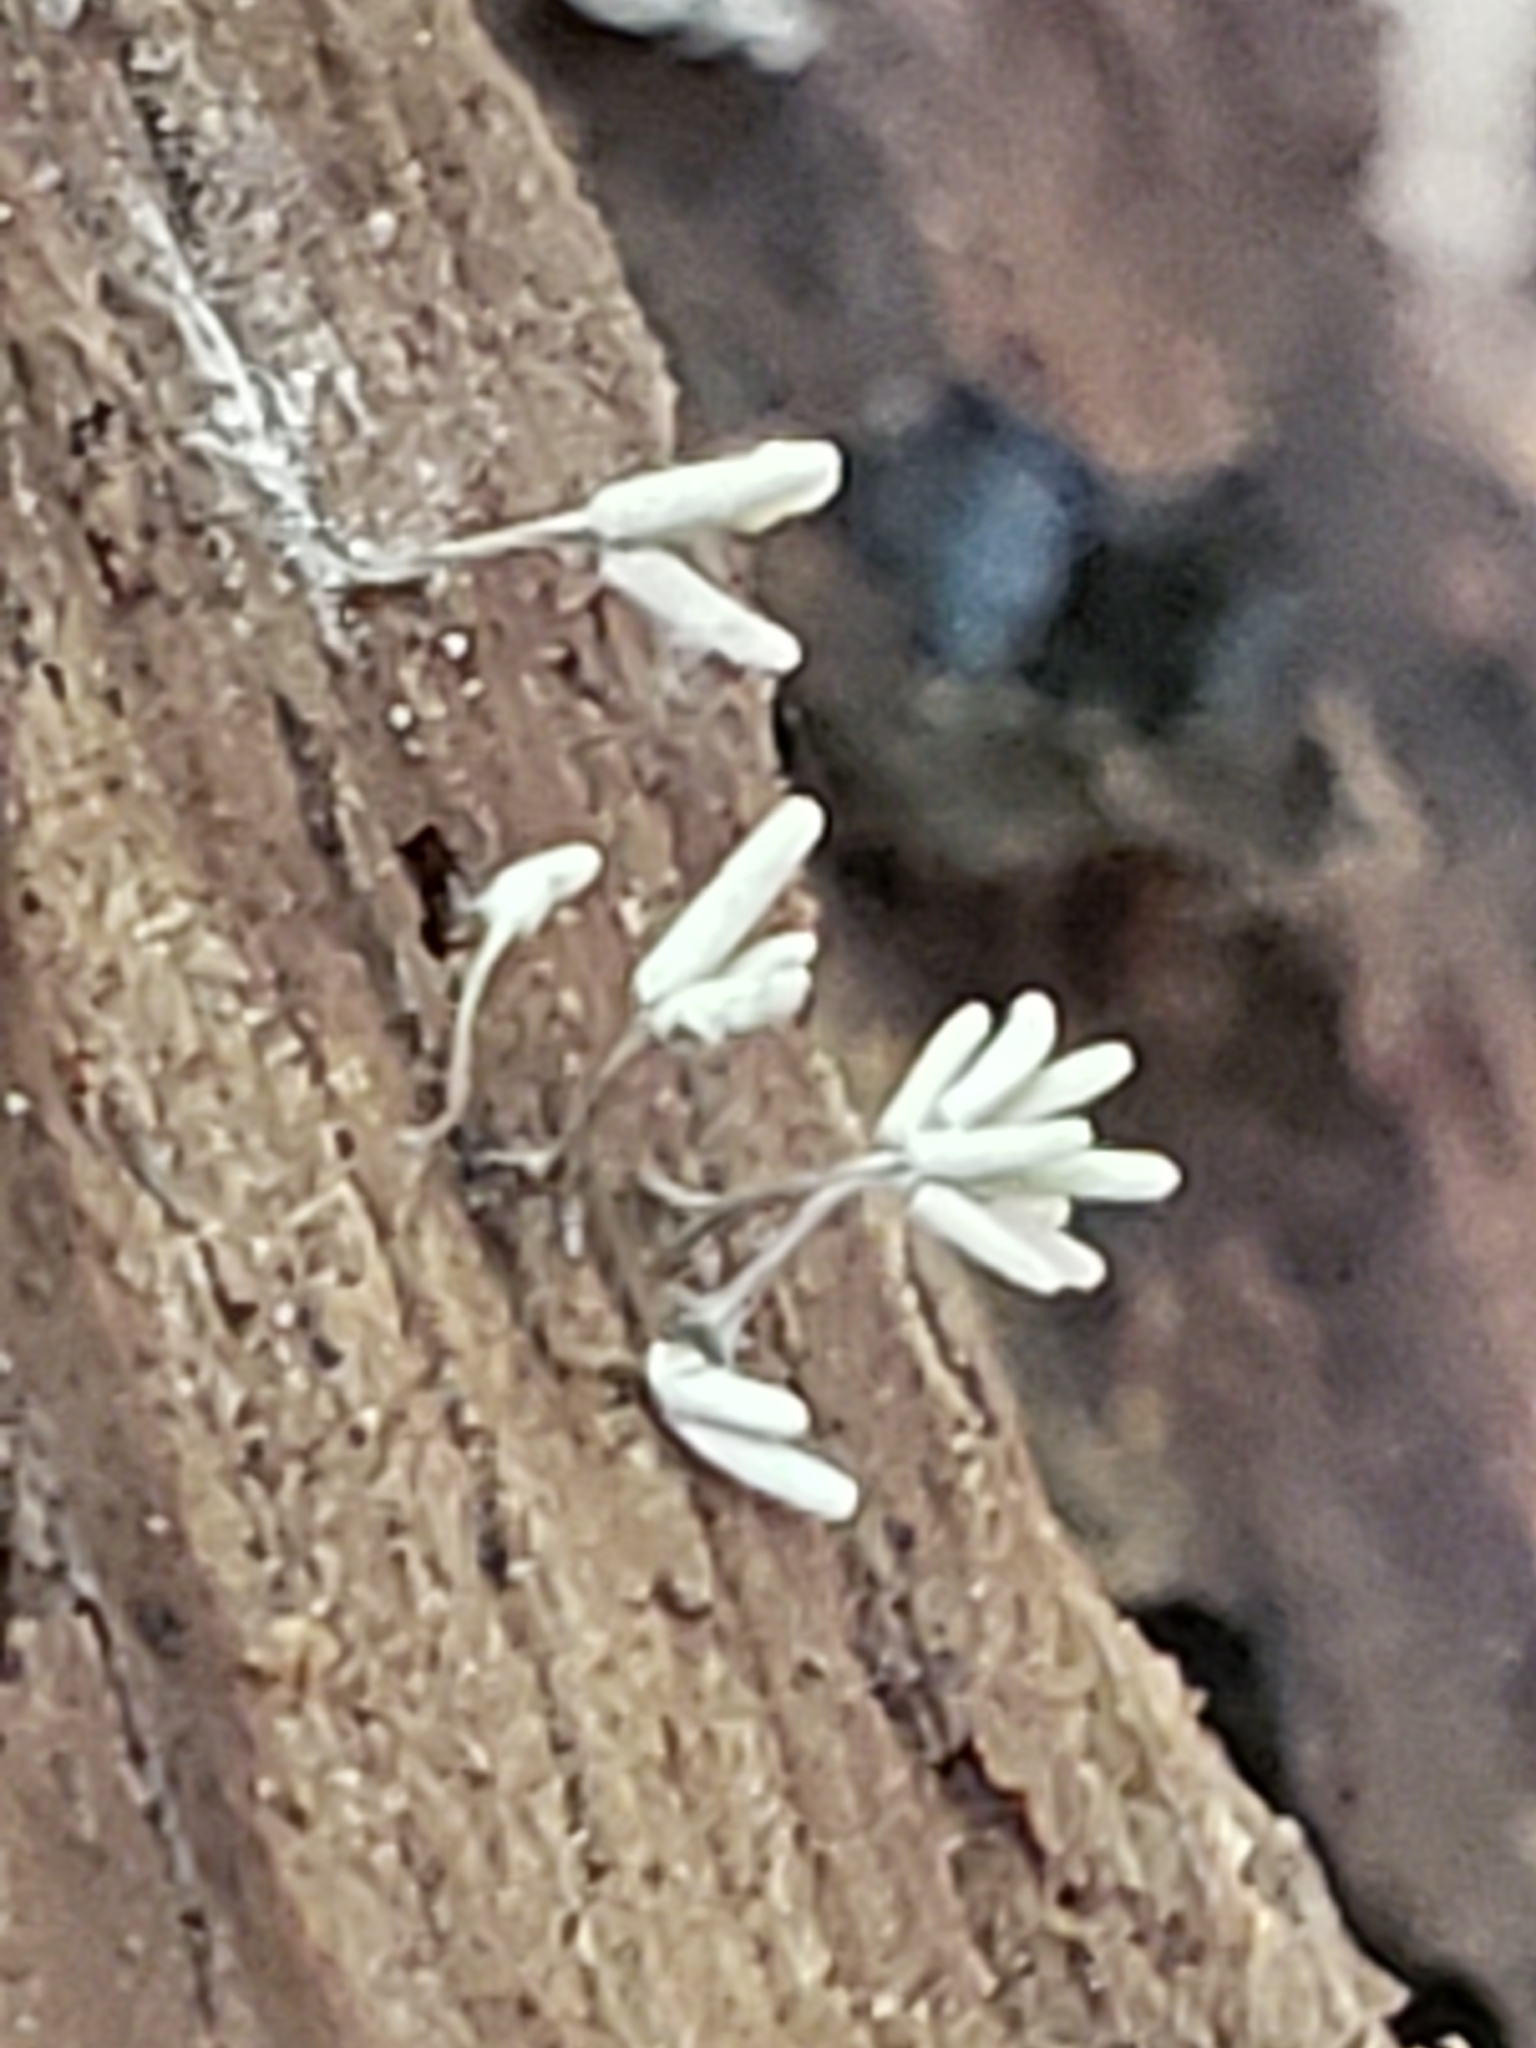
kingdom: Protozoa
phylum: Mycetozoa
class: Myxomycetes
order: Trichiales
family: Arcyriaceae
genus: Arcyria
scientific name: Arcyria cinerea
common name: White carnival candy slime mold
